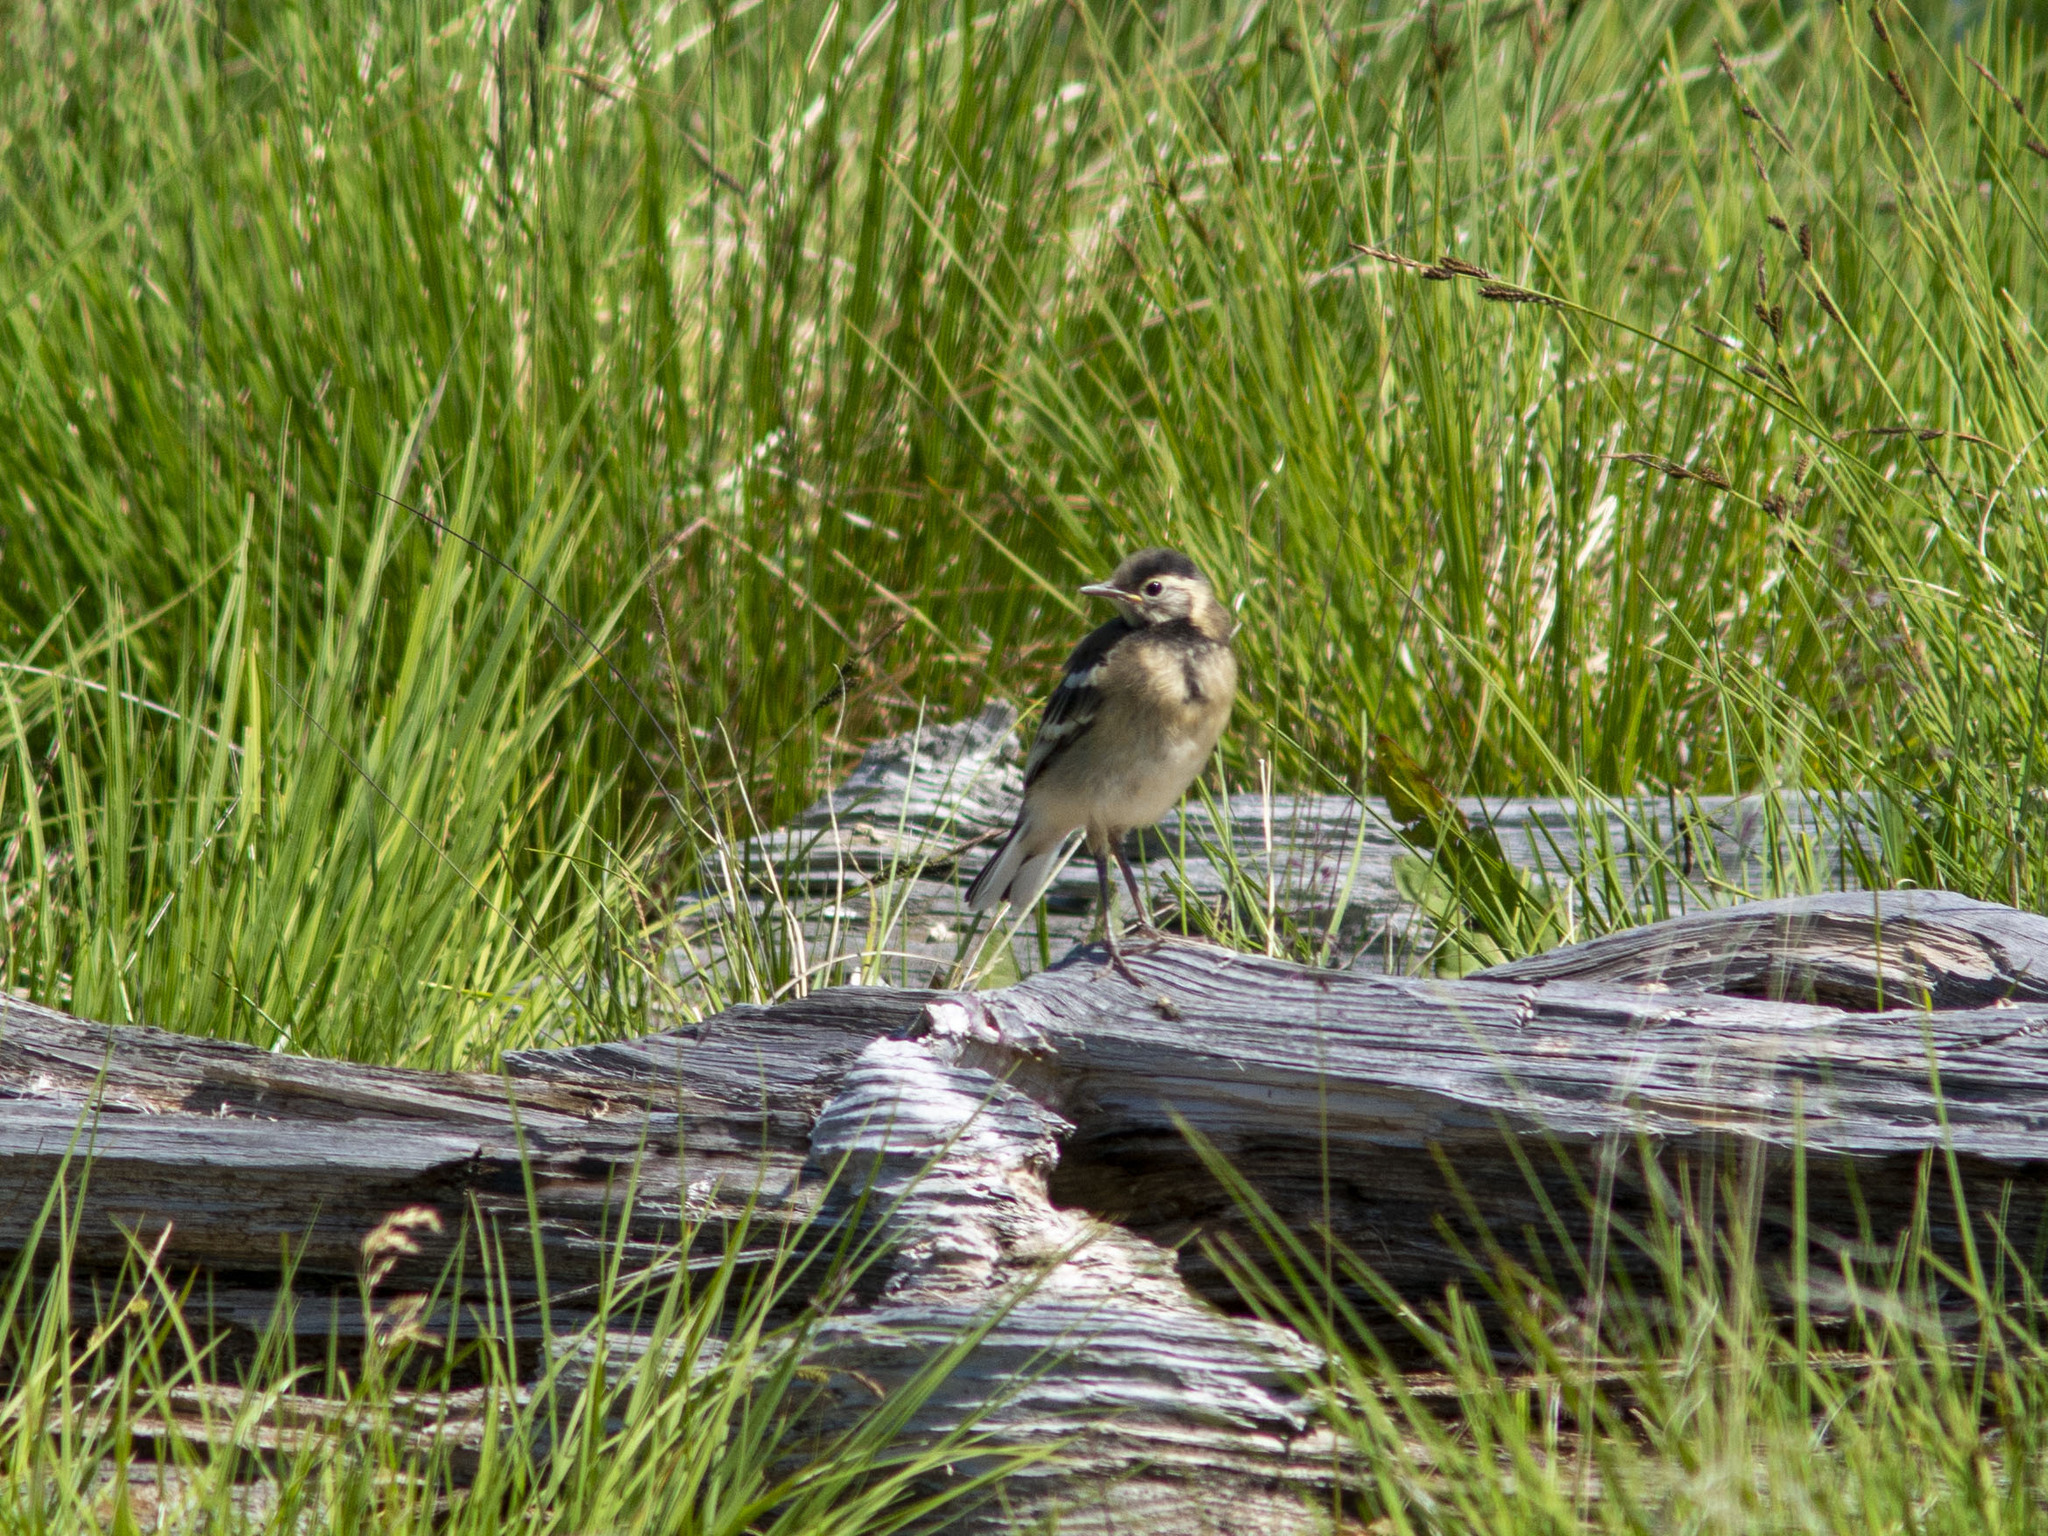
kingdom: Animalia
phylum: Chordata
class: Aves
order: Passeriformes
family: Motacillidae
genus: Motacilla
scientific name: Motacilla citreola
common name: Citrine wagtail
